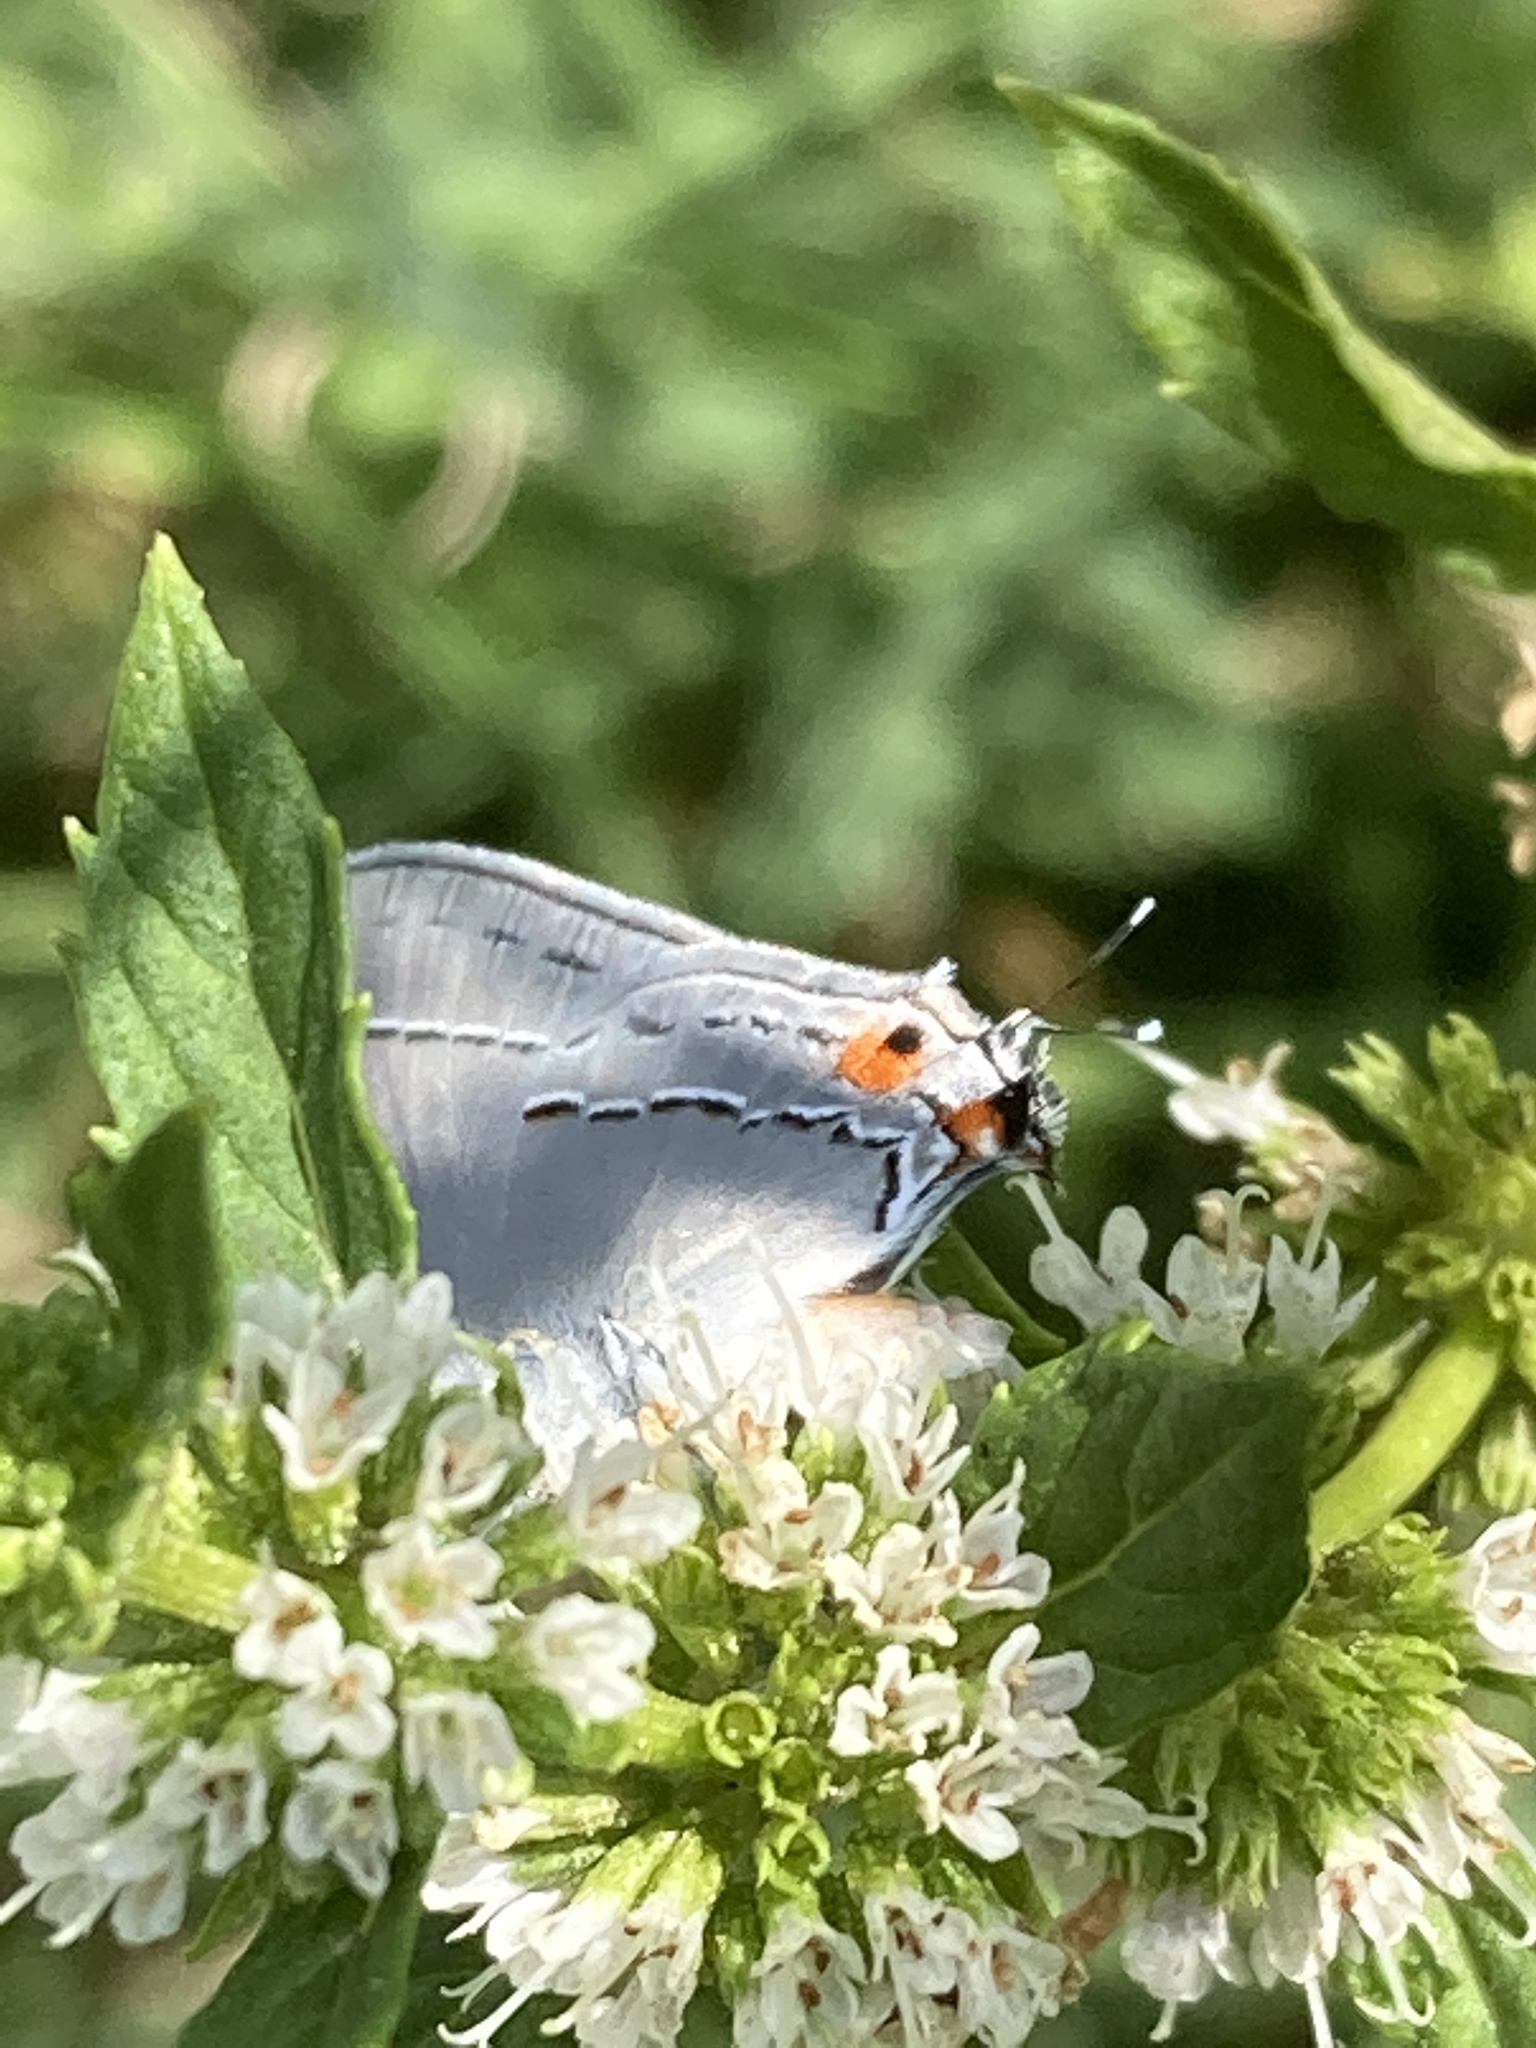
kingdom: Animalia
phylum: Arthropoda
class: Insecta
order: Lepidoptera
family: Lycaenidae
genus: Strymon
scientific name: Strymon melinus
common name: Gray hairstreak
